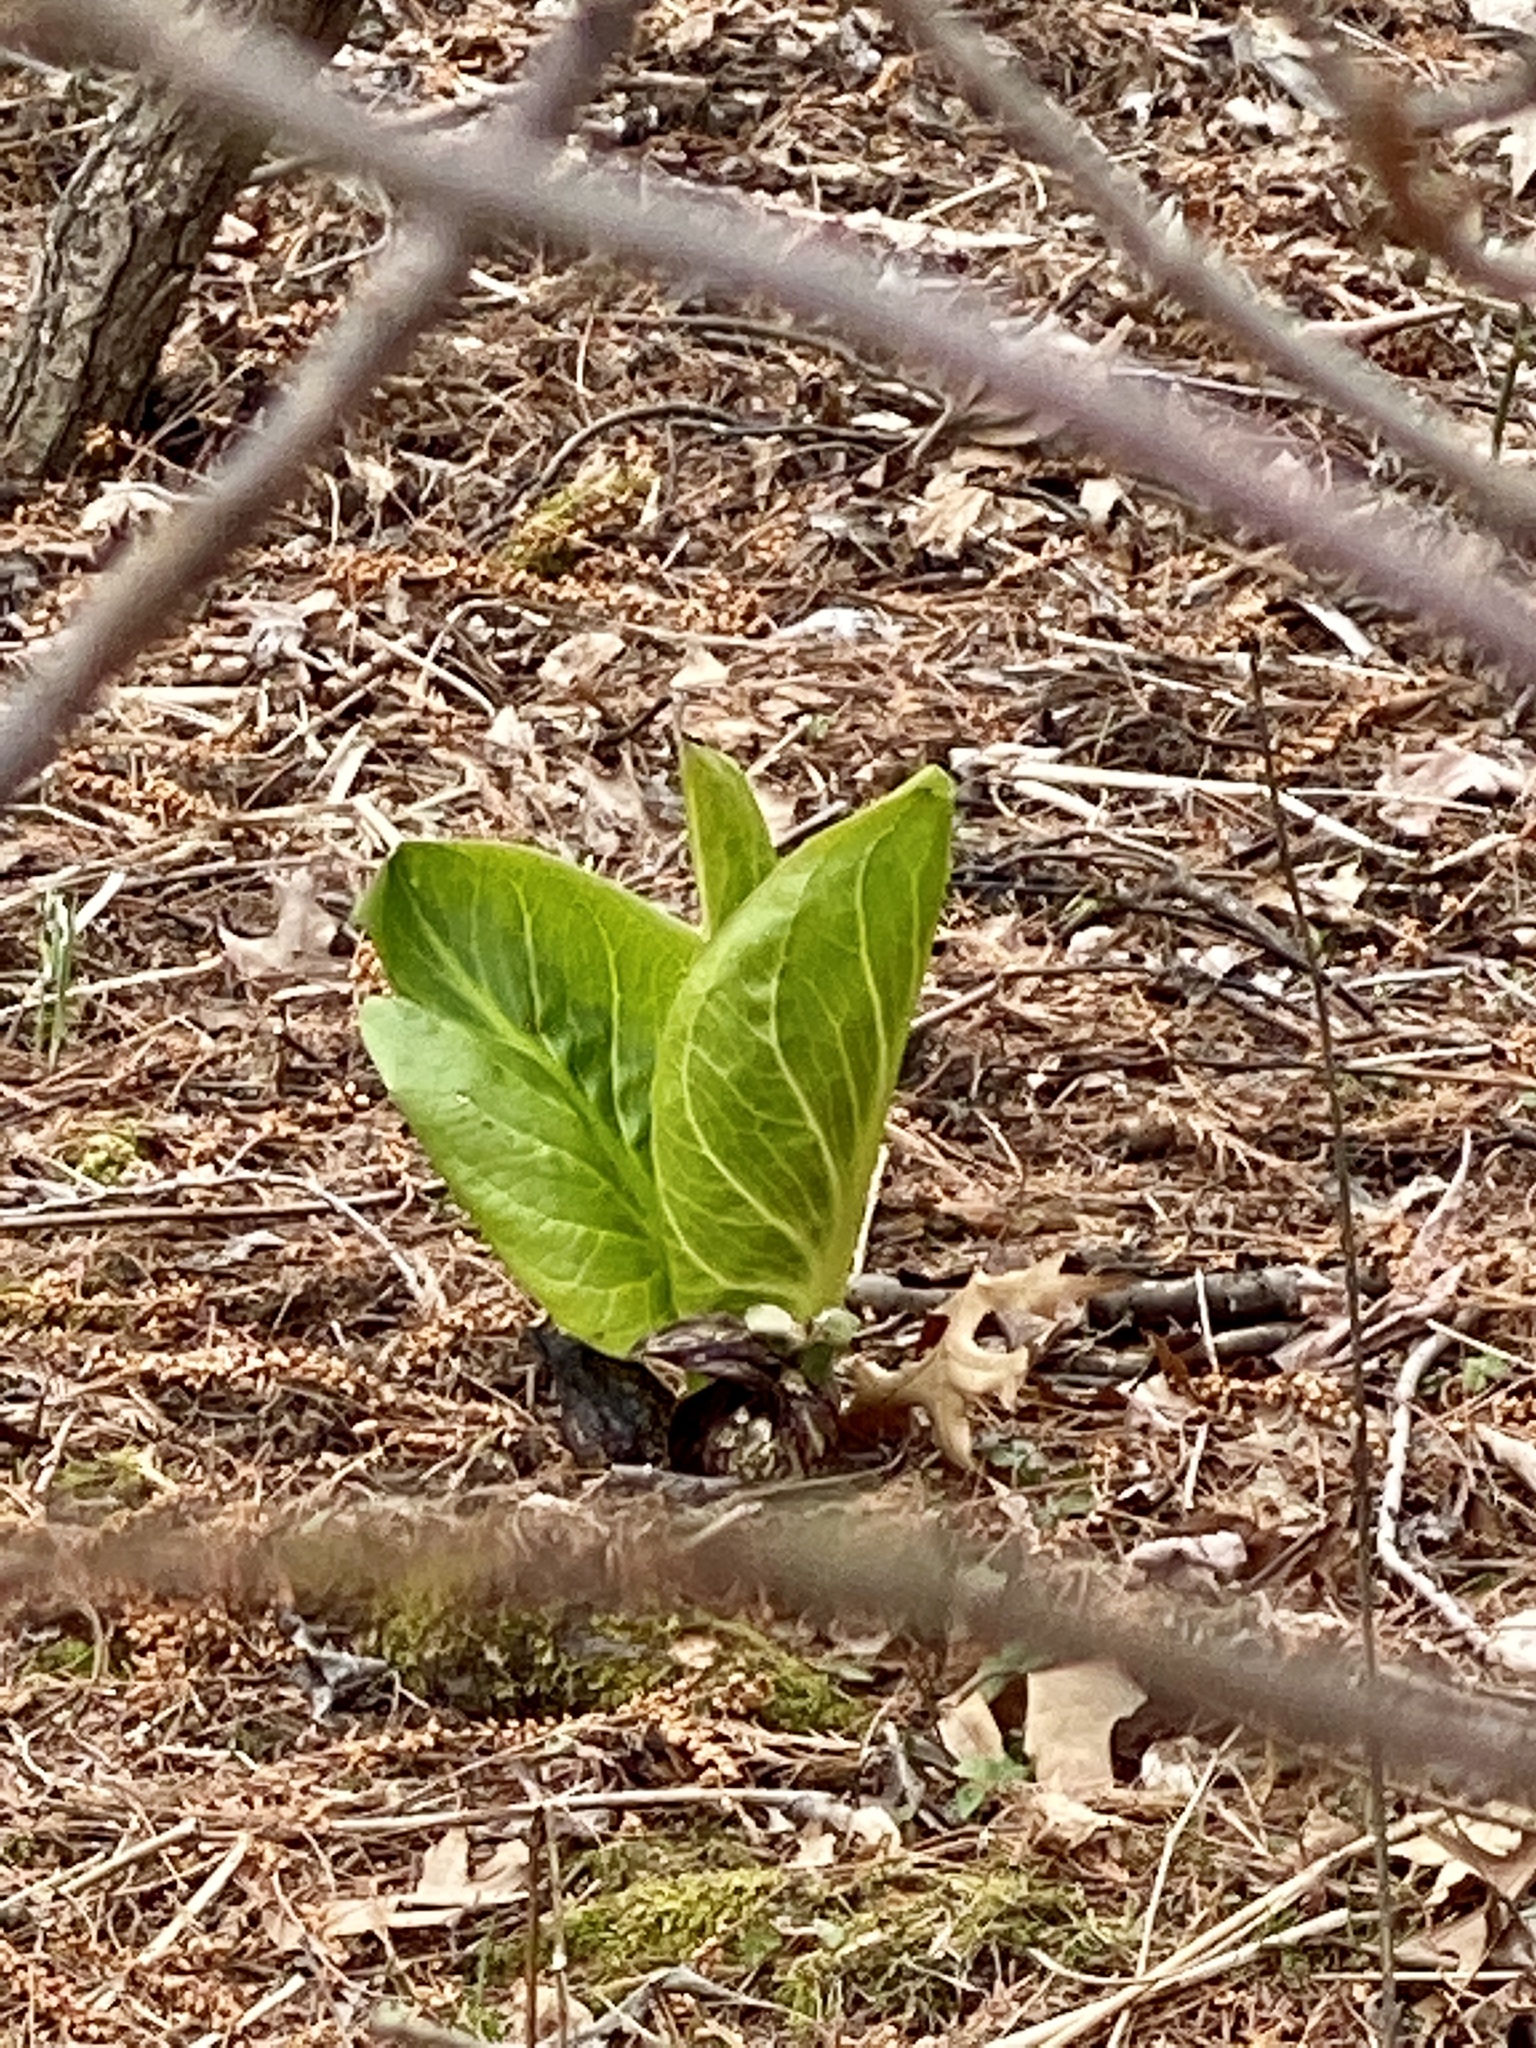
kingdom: Plantae
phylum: Tracheophyta
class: Liliopsida
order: Alismatales
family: Araceae
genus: Symplocarpus
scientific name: Symplocarpus foetidus
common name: Eastern skunk cabbage
